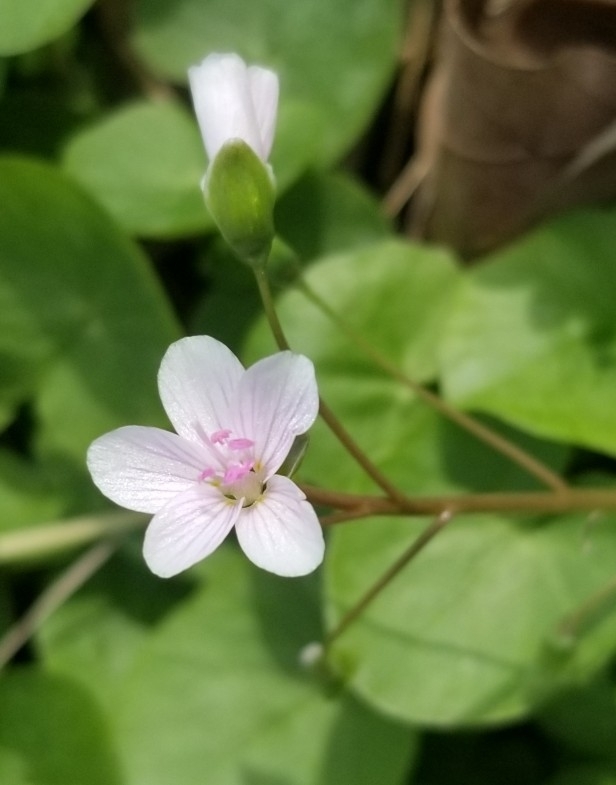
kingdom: Plantae
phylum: Tracheophyta
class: Magnoliopsida
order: Caryophyllales
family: Montiaceae
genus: Claytonia
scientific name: Claytonia virginica
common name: Virginia springbeauty
